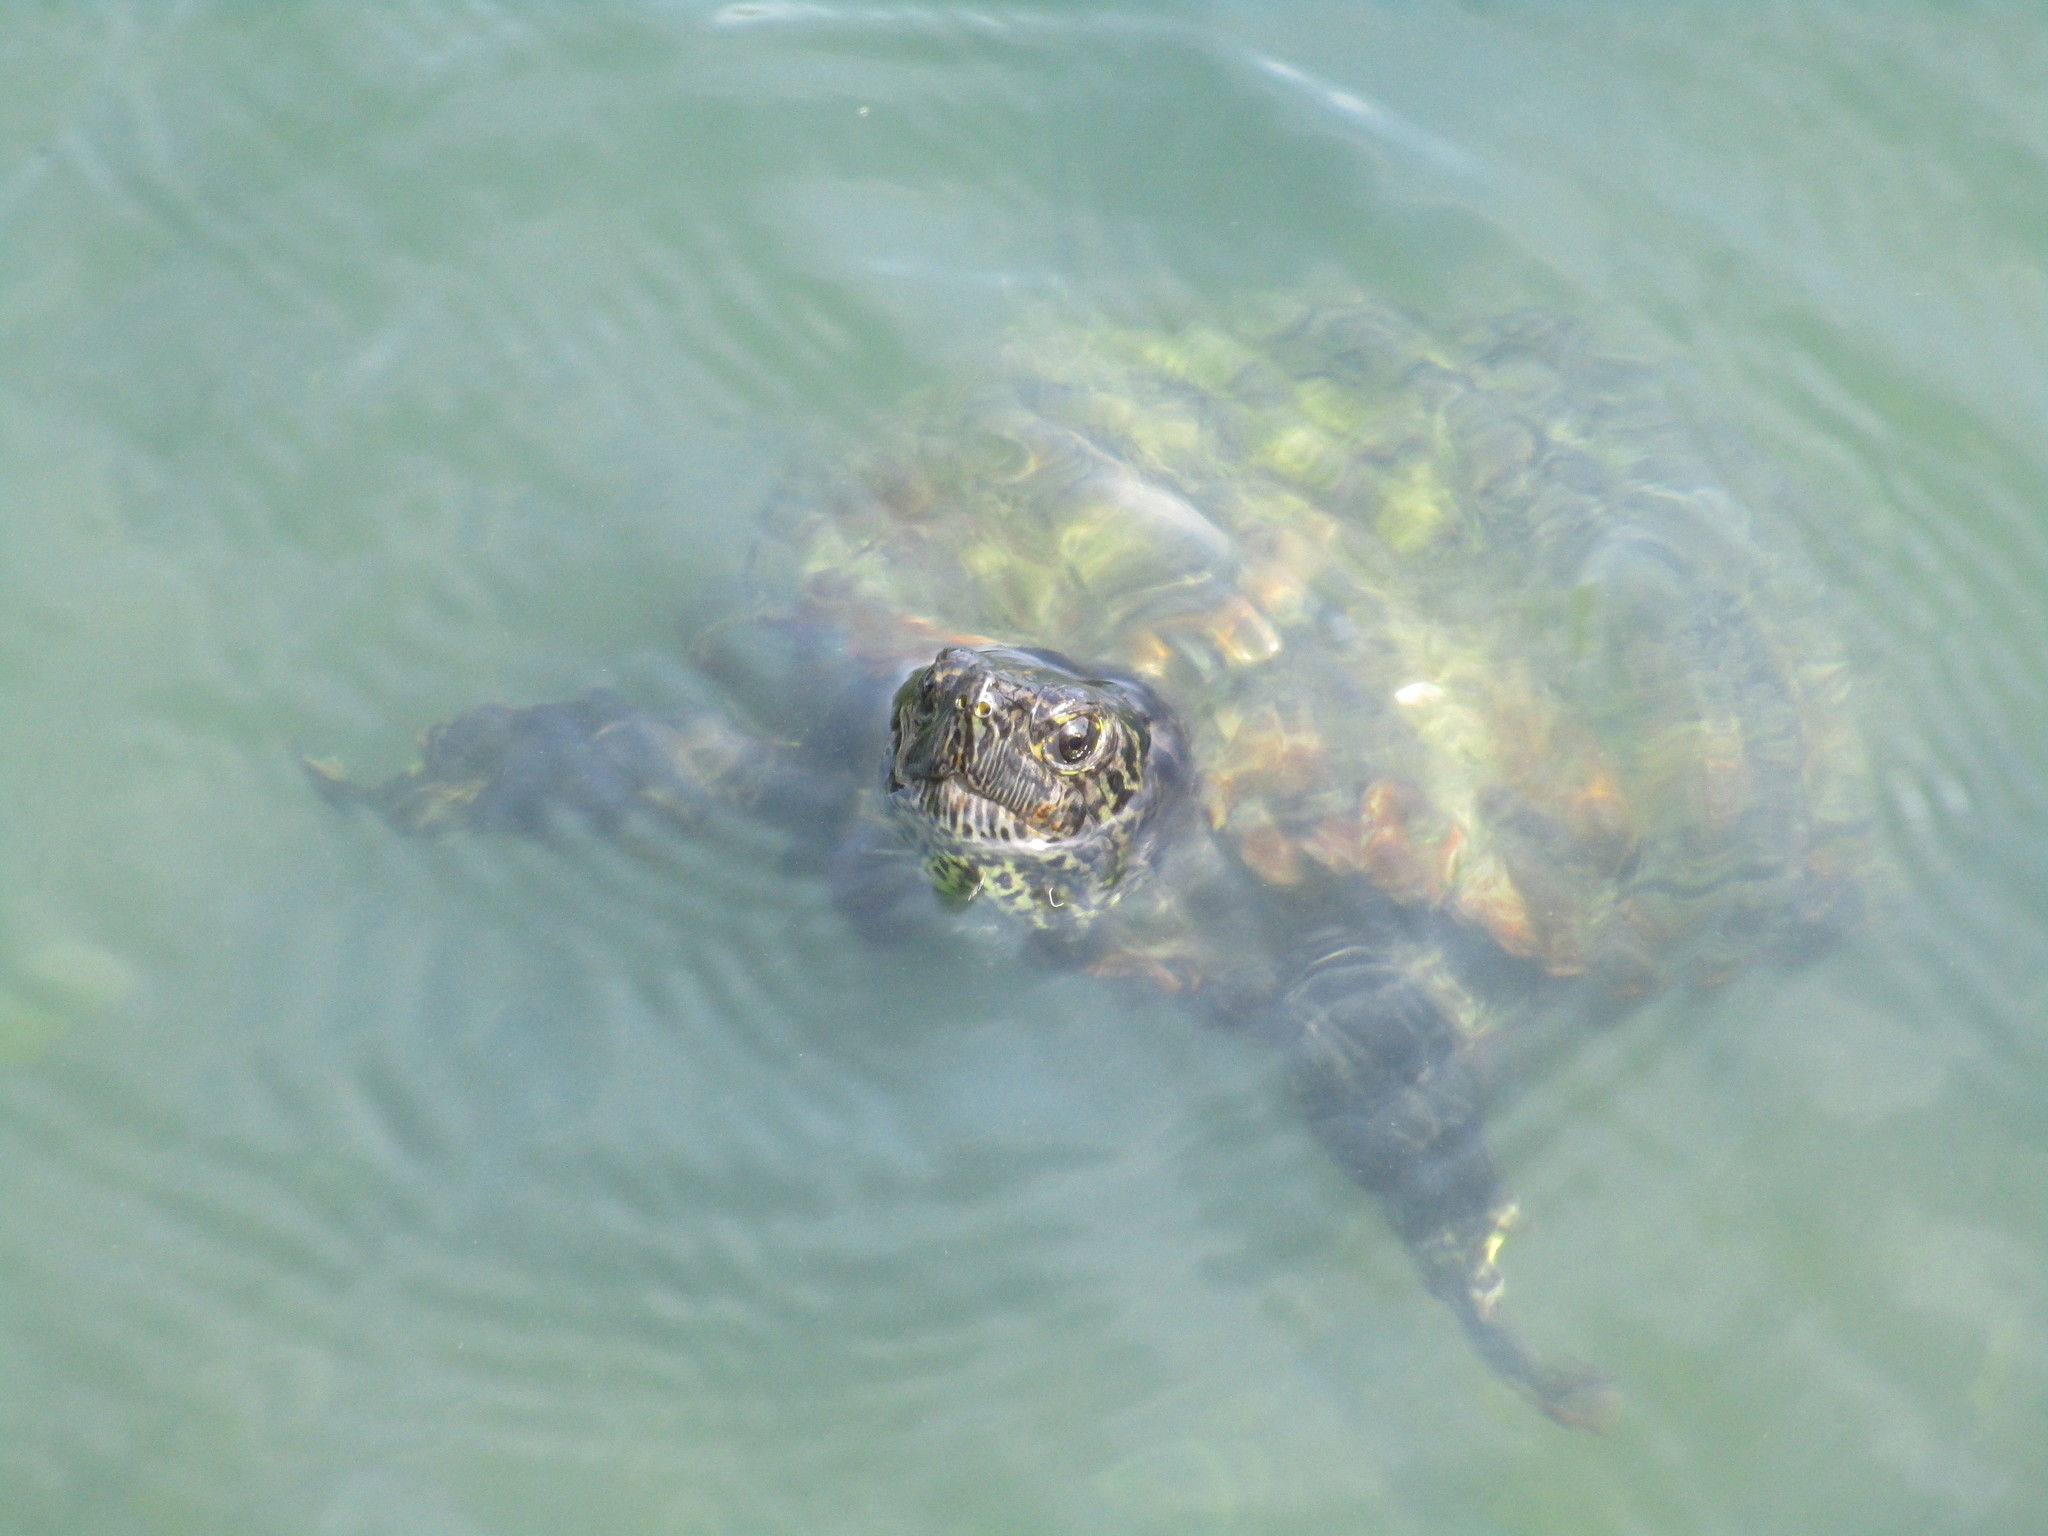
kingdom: Animalia
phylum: Chordata
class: Testudines
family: Emydidae
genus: Trachemys
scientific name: Trachemys scripta
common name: Slider
